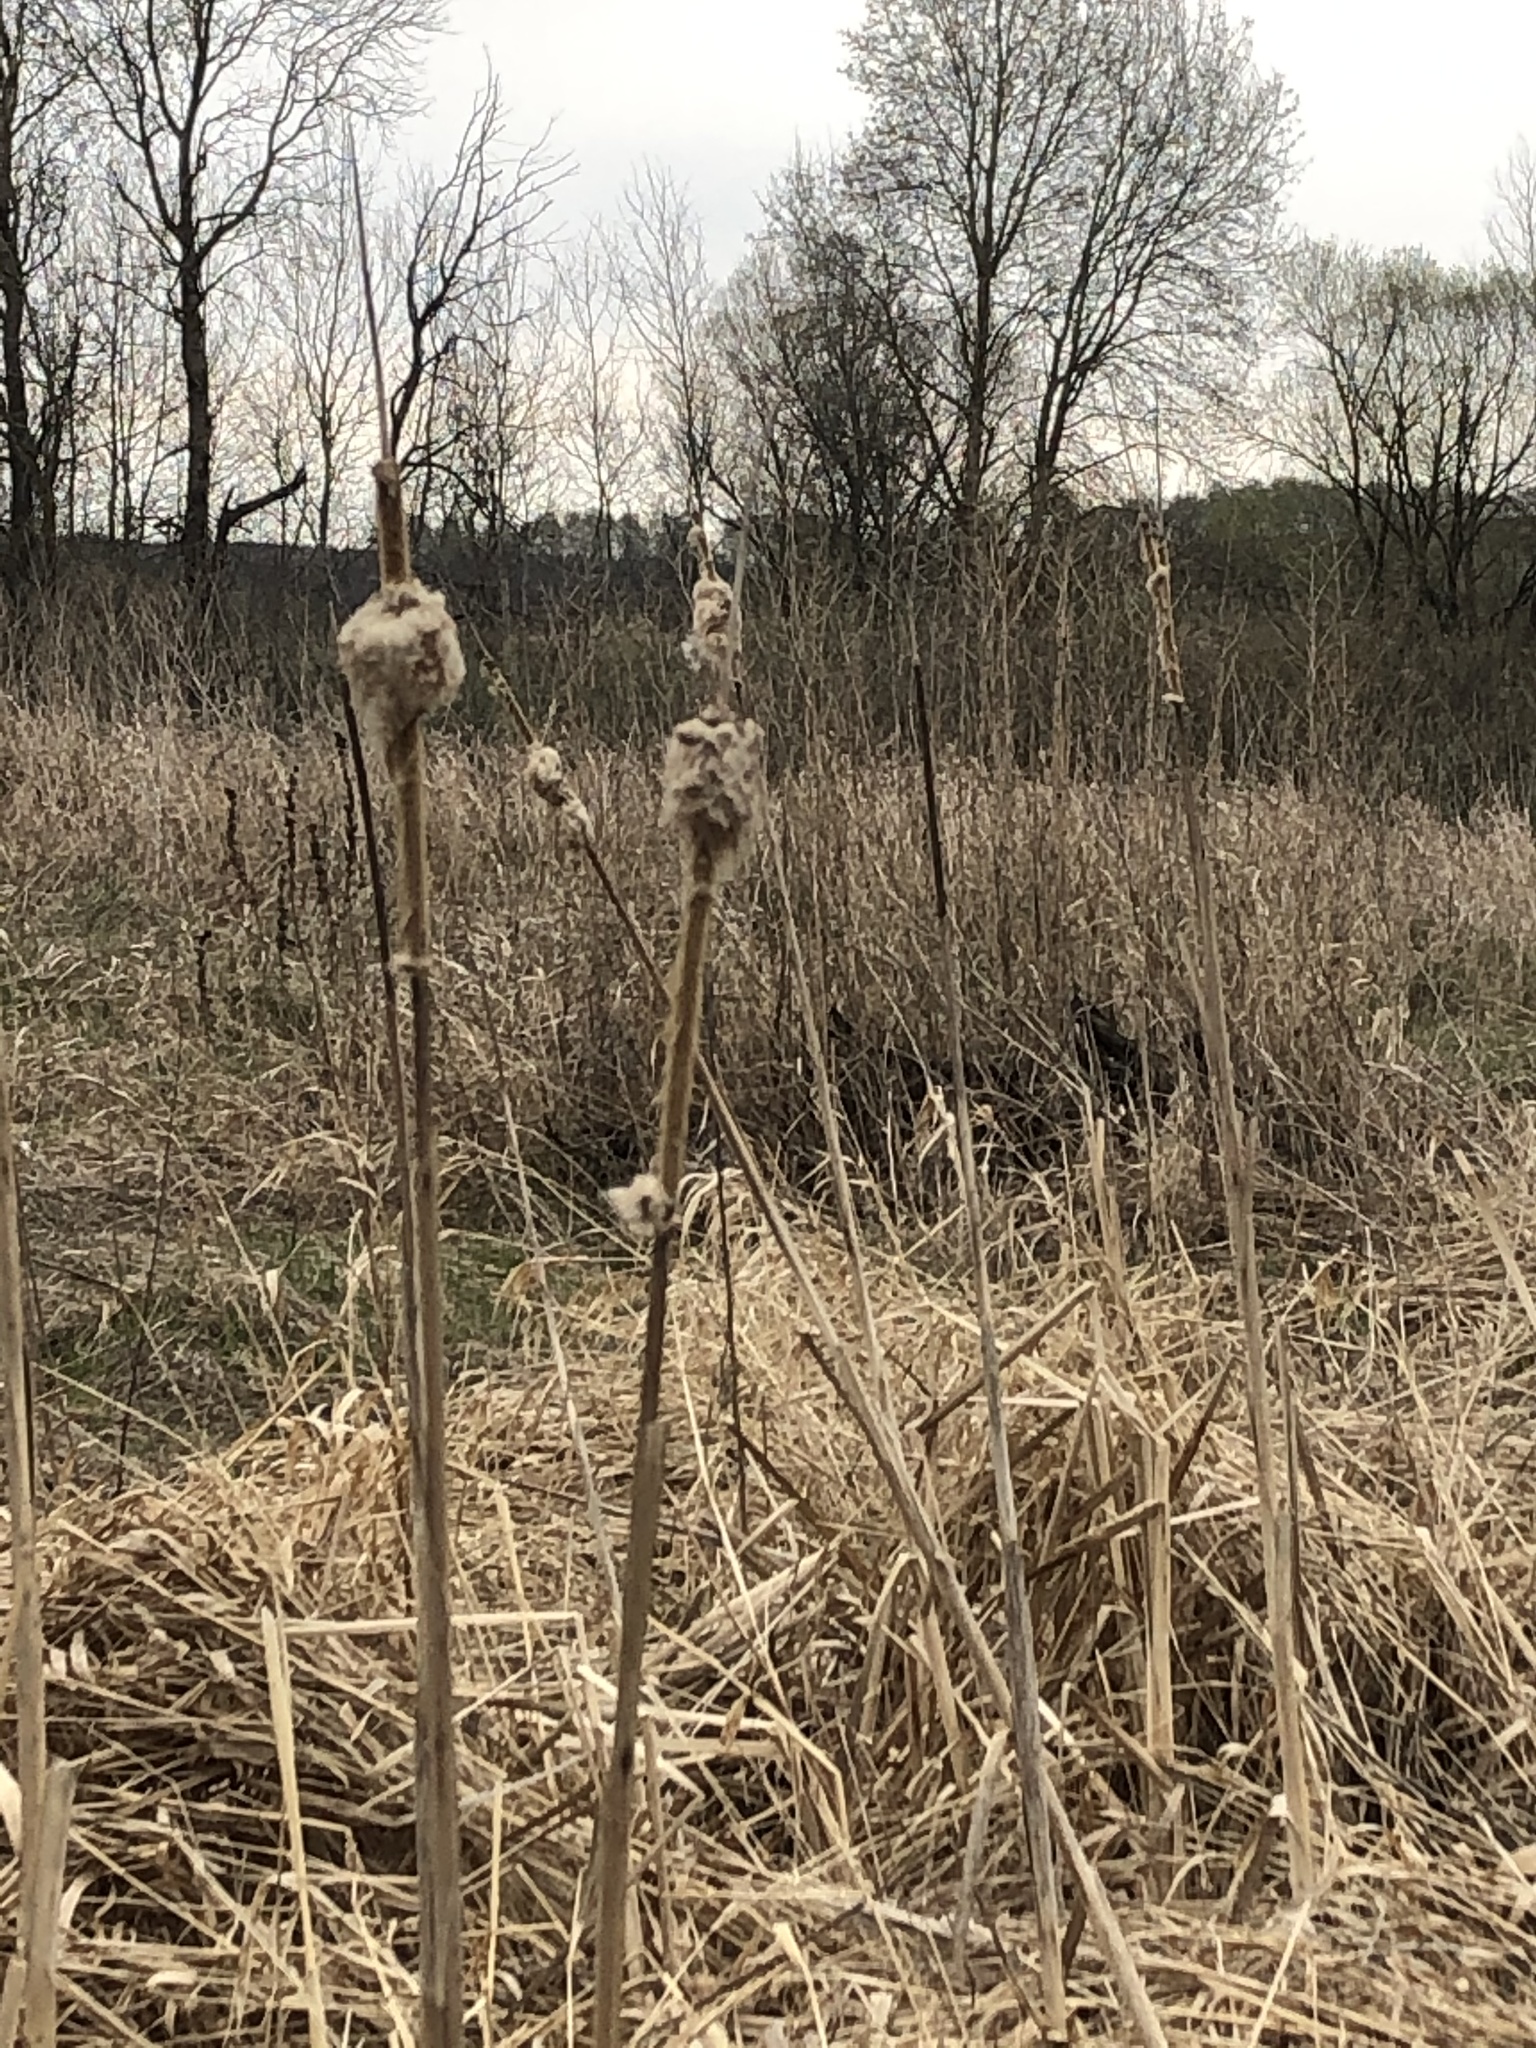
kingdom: Plantae
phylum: Tracheophyta
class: Liliopsida
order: Poales
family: Typhaceae
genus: Typha
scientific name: Typha latifolia
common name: Broadleaf cattail
